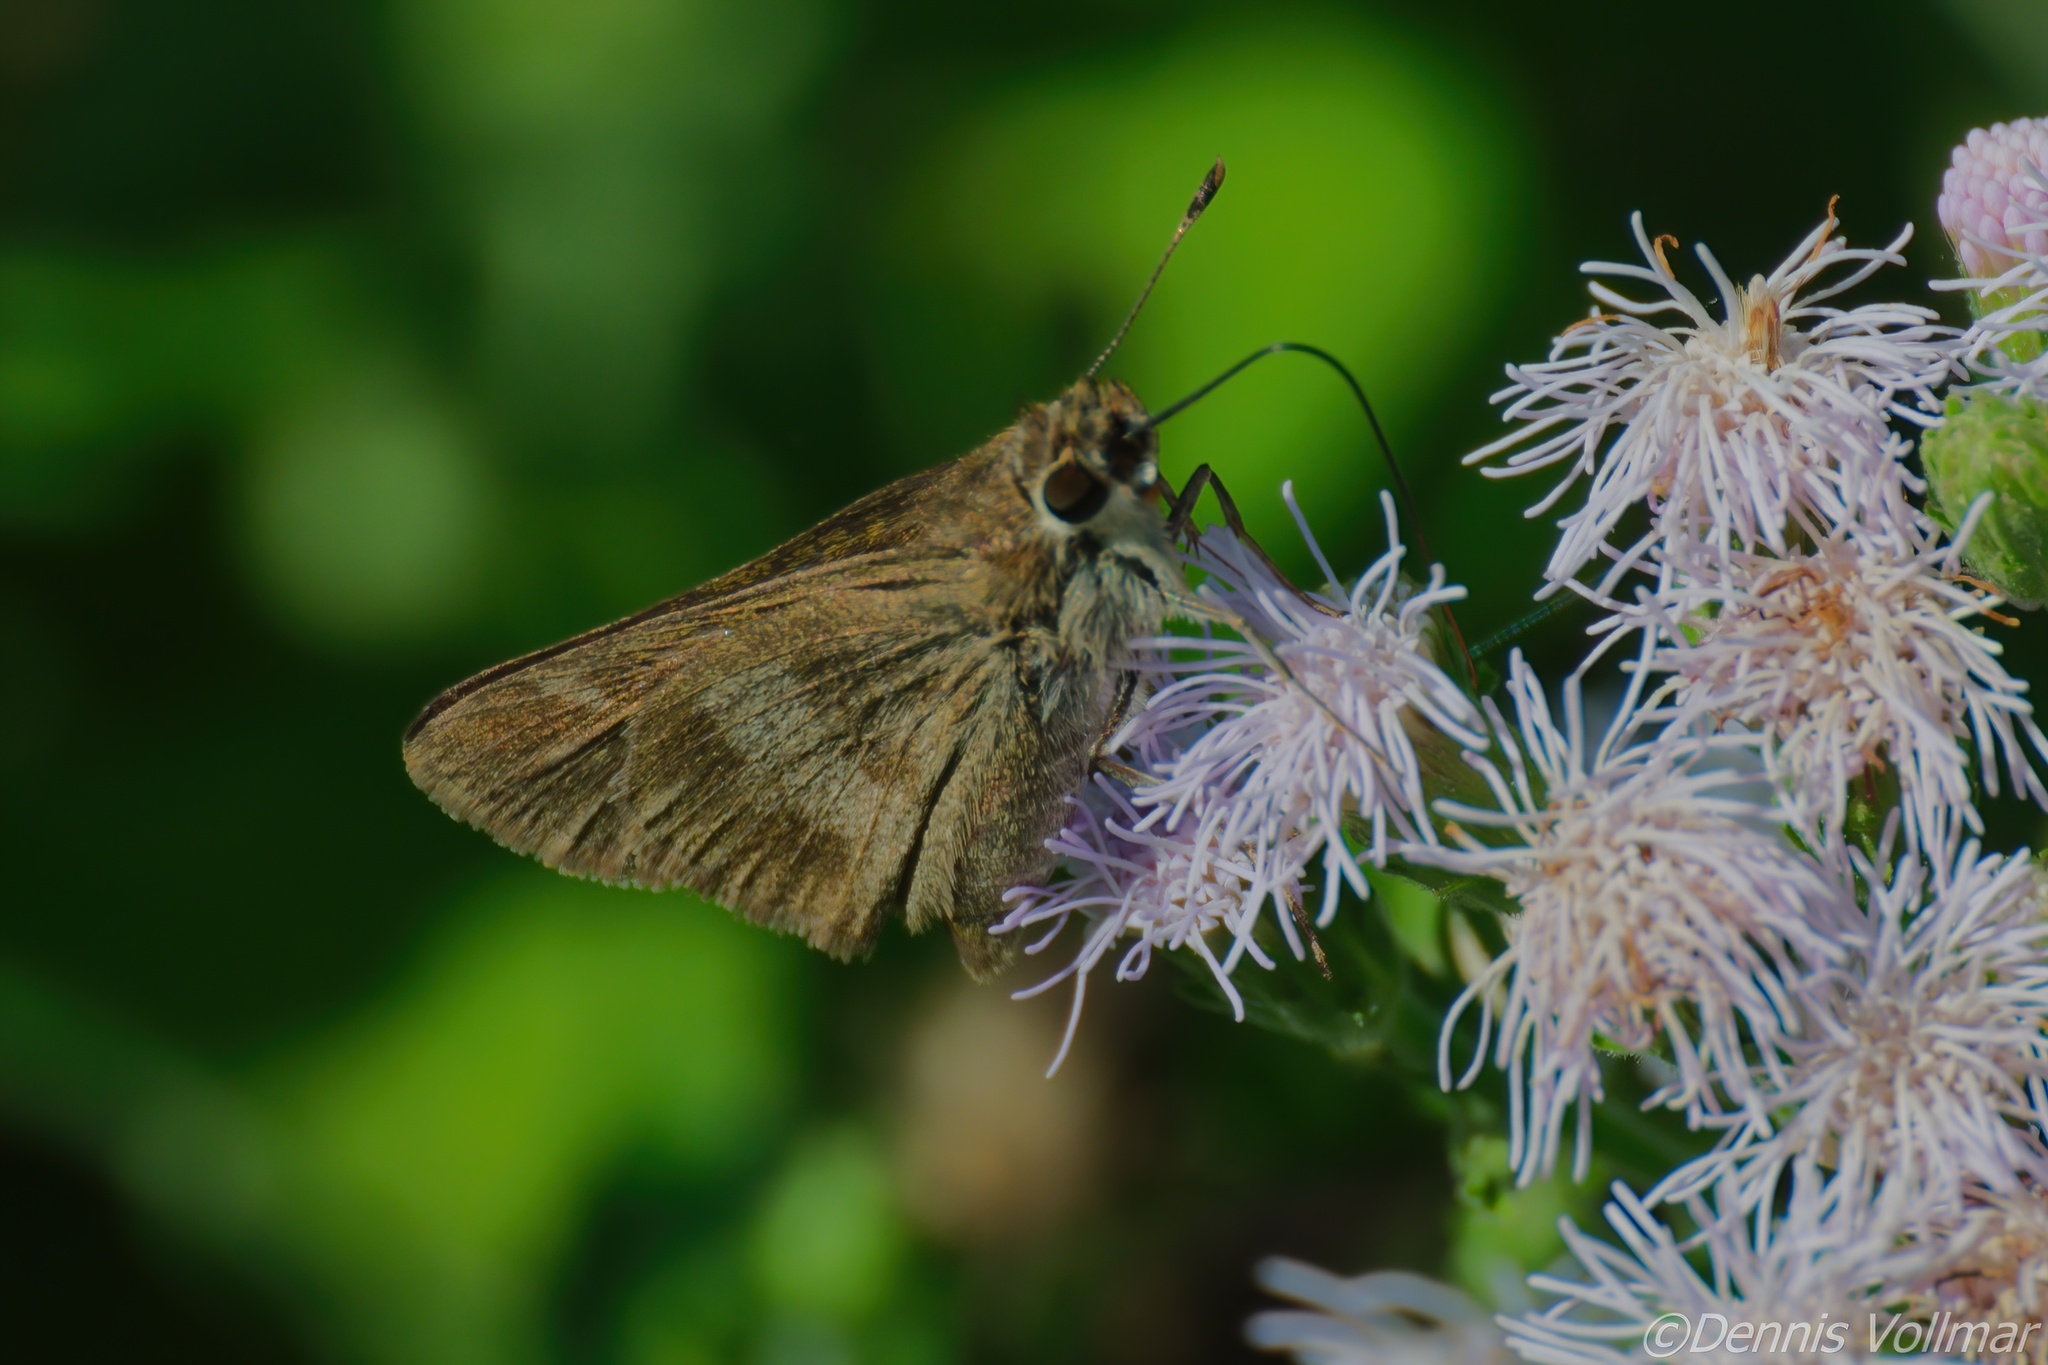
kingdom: Animalia
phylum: Arthropoda
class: Insecta
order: Lepidoptera
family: Hesperiidae
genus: Polites
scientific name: Polites vibex
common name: Whirlabout
